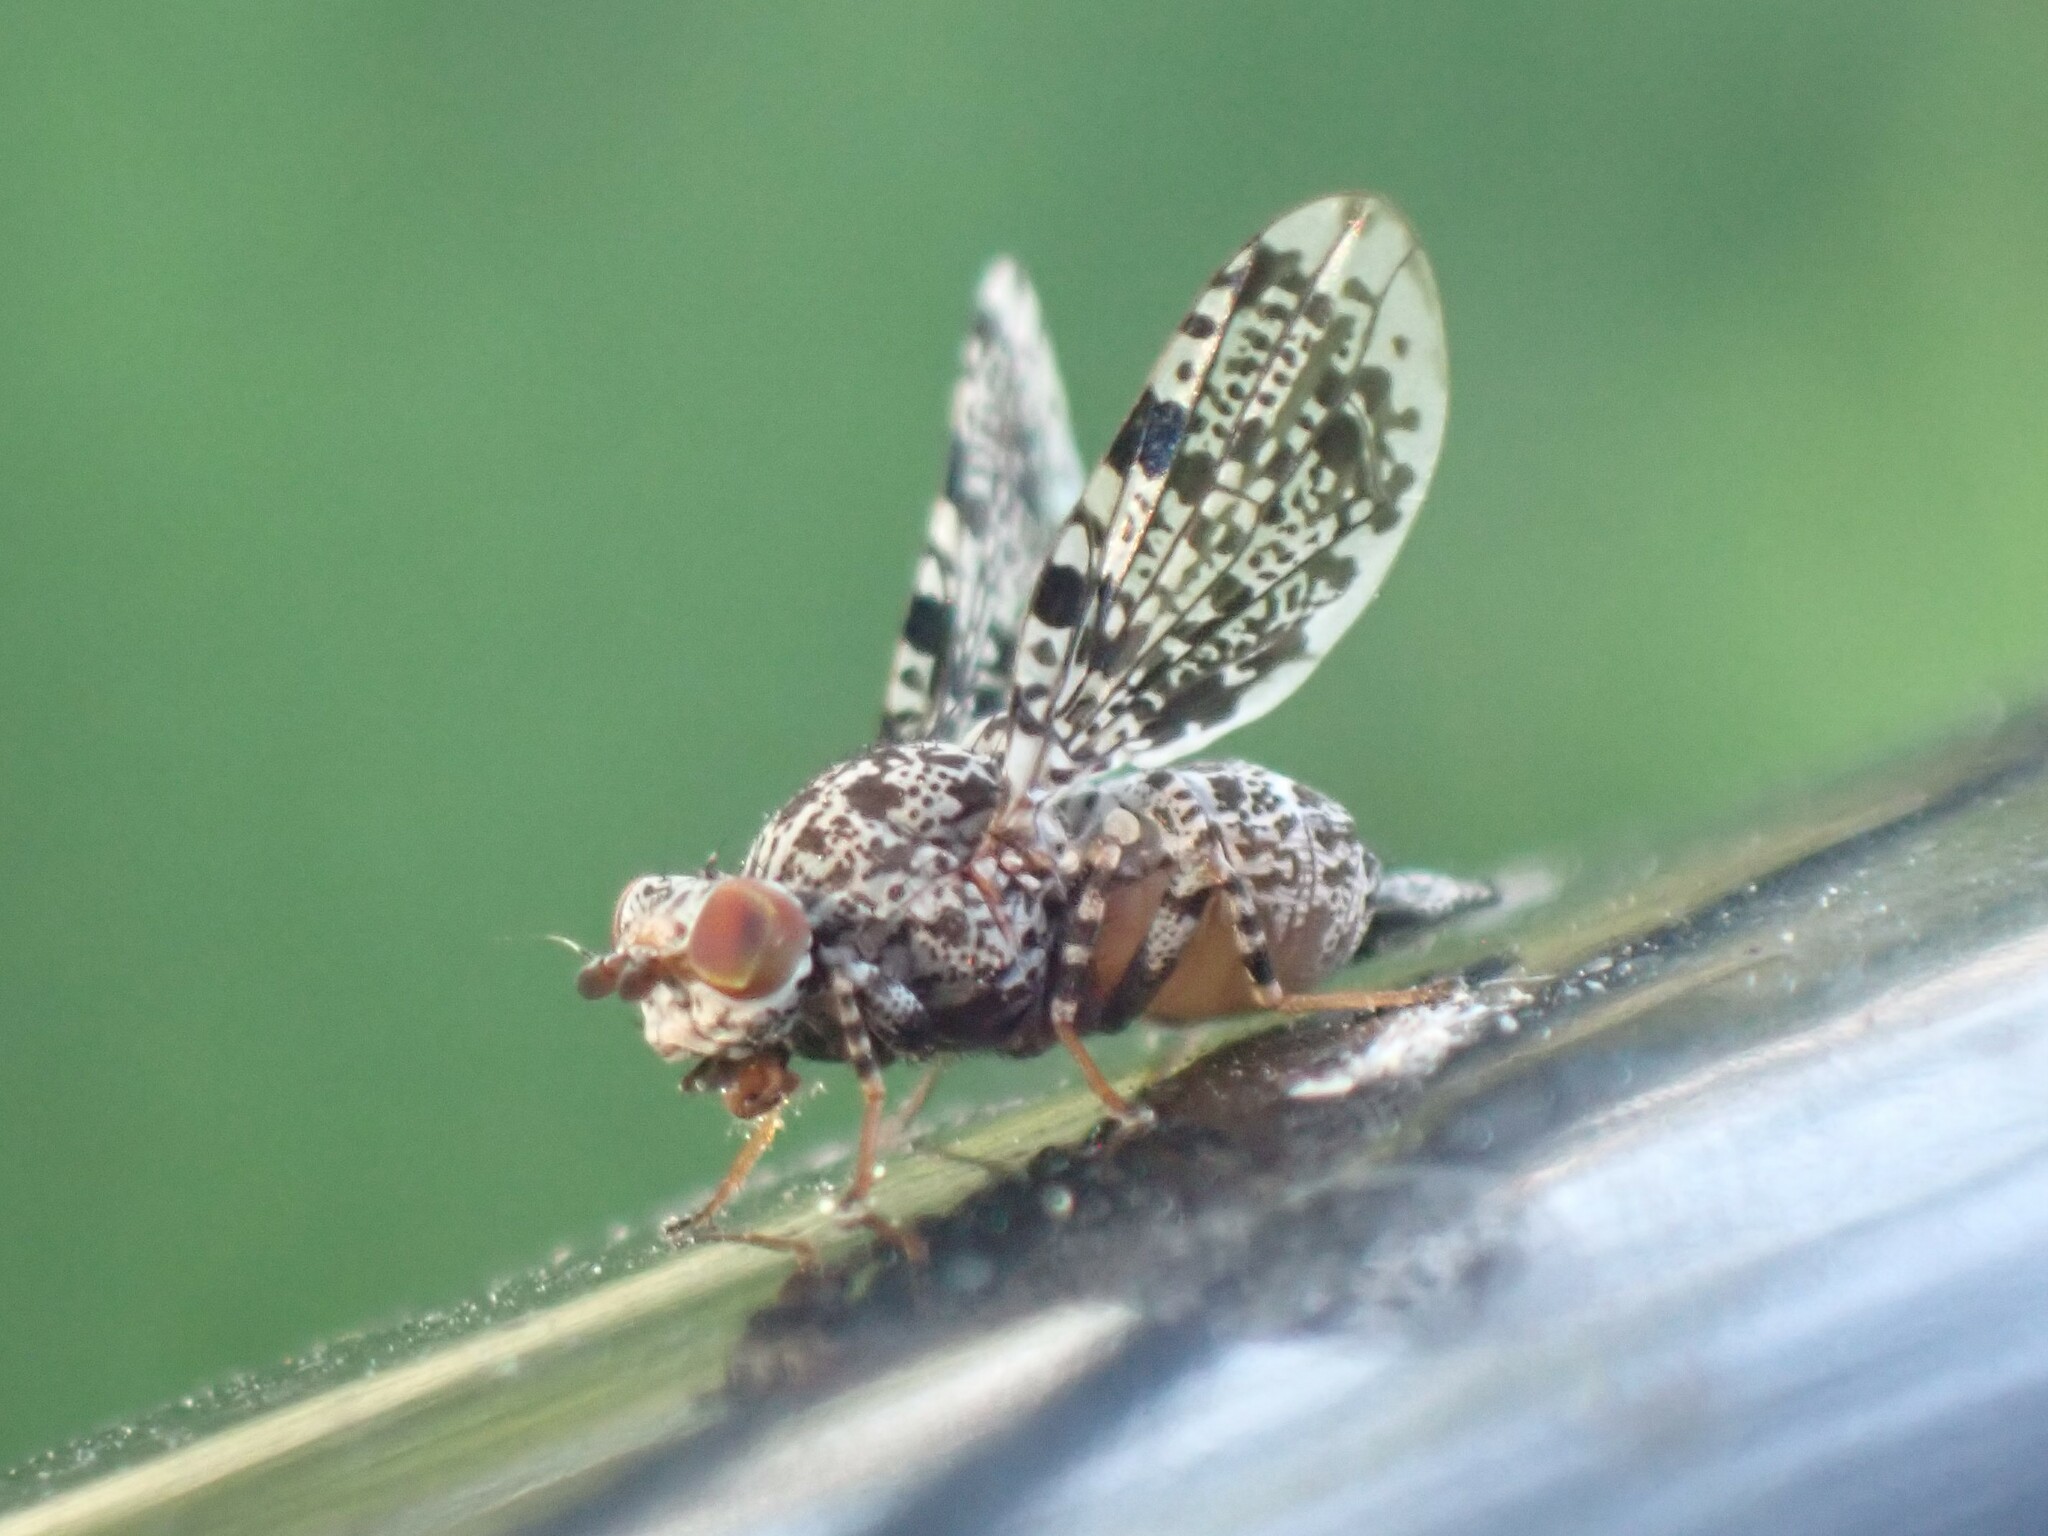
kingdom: Animalia
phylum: Arthropoda
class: Insecta
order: Diptera
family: Ulidiidae
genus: Callopistromyia
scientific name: Callopistromyia annulipes
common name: Peacock fly
